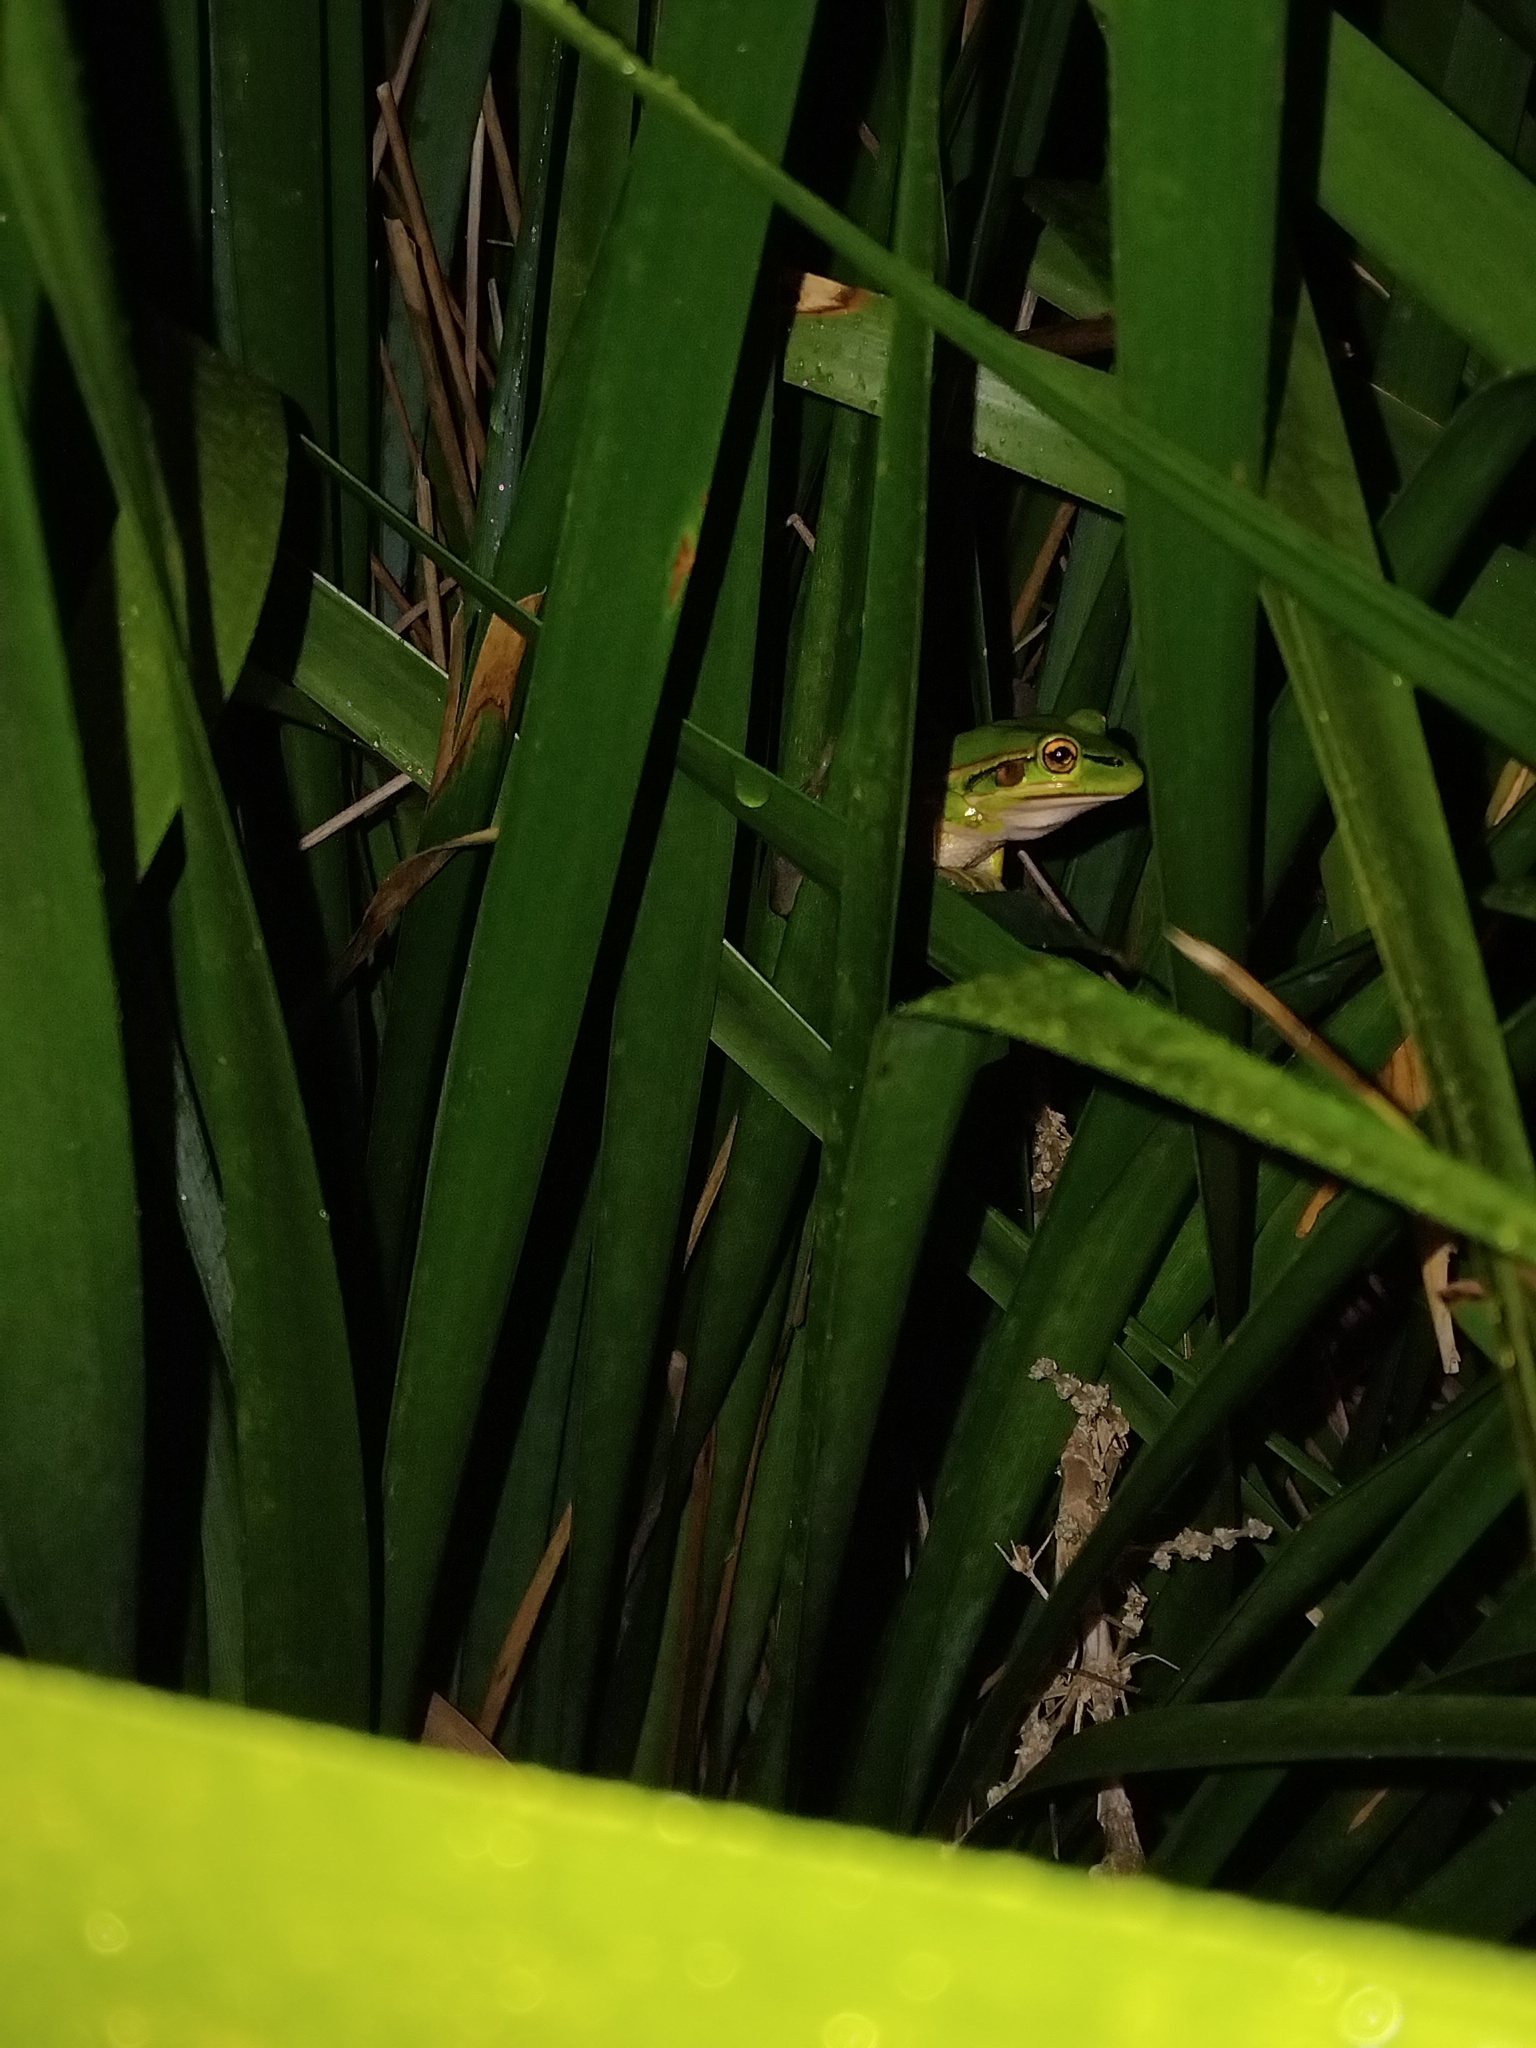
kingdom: Animalia
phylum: Chordata
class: Amphibia
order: Anura
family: Pelodryadidae
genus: Ranoidea
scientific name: Ranoidea aurea
